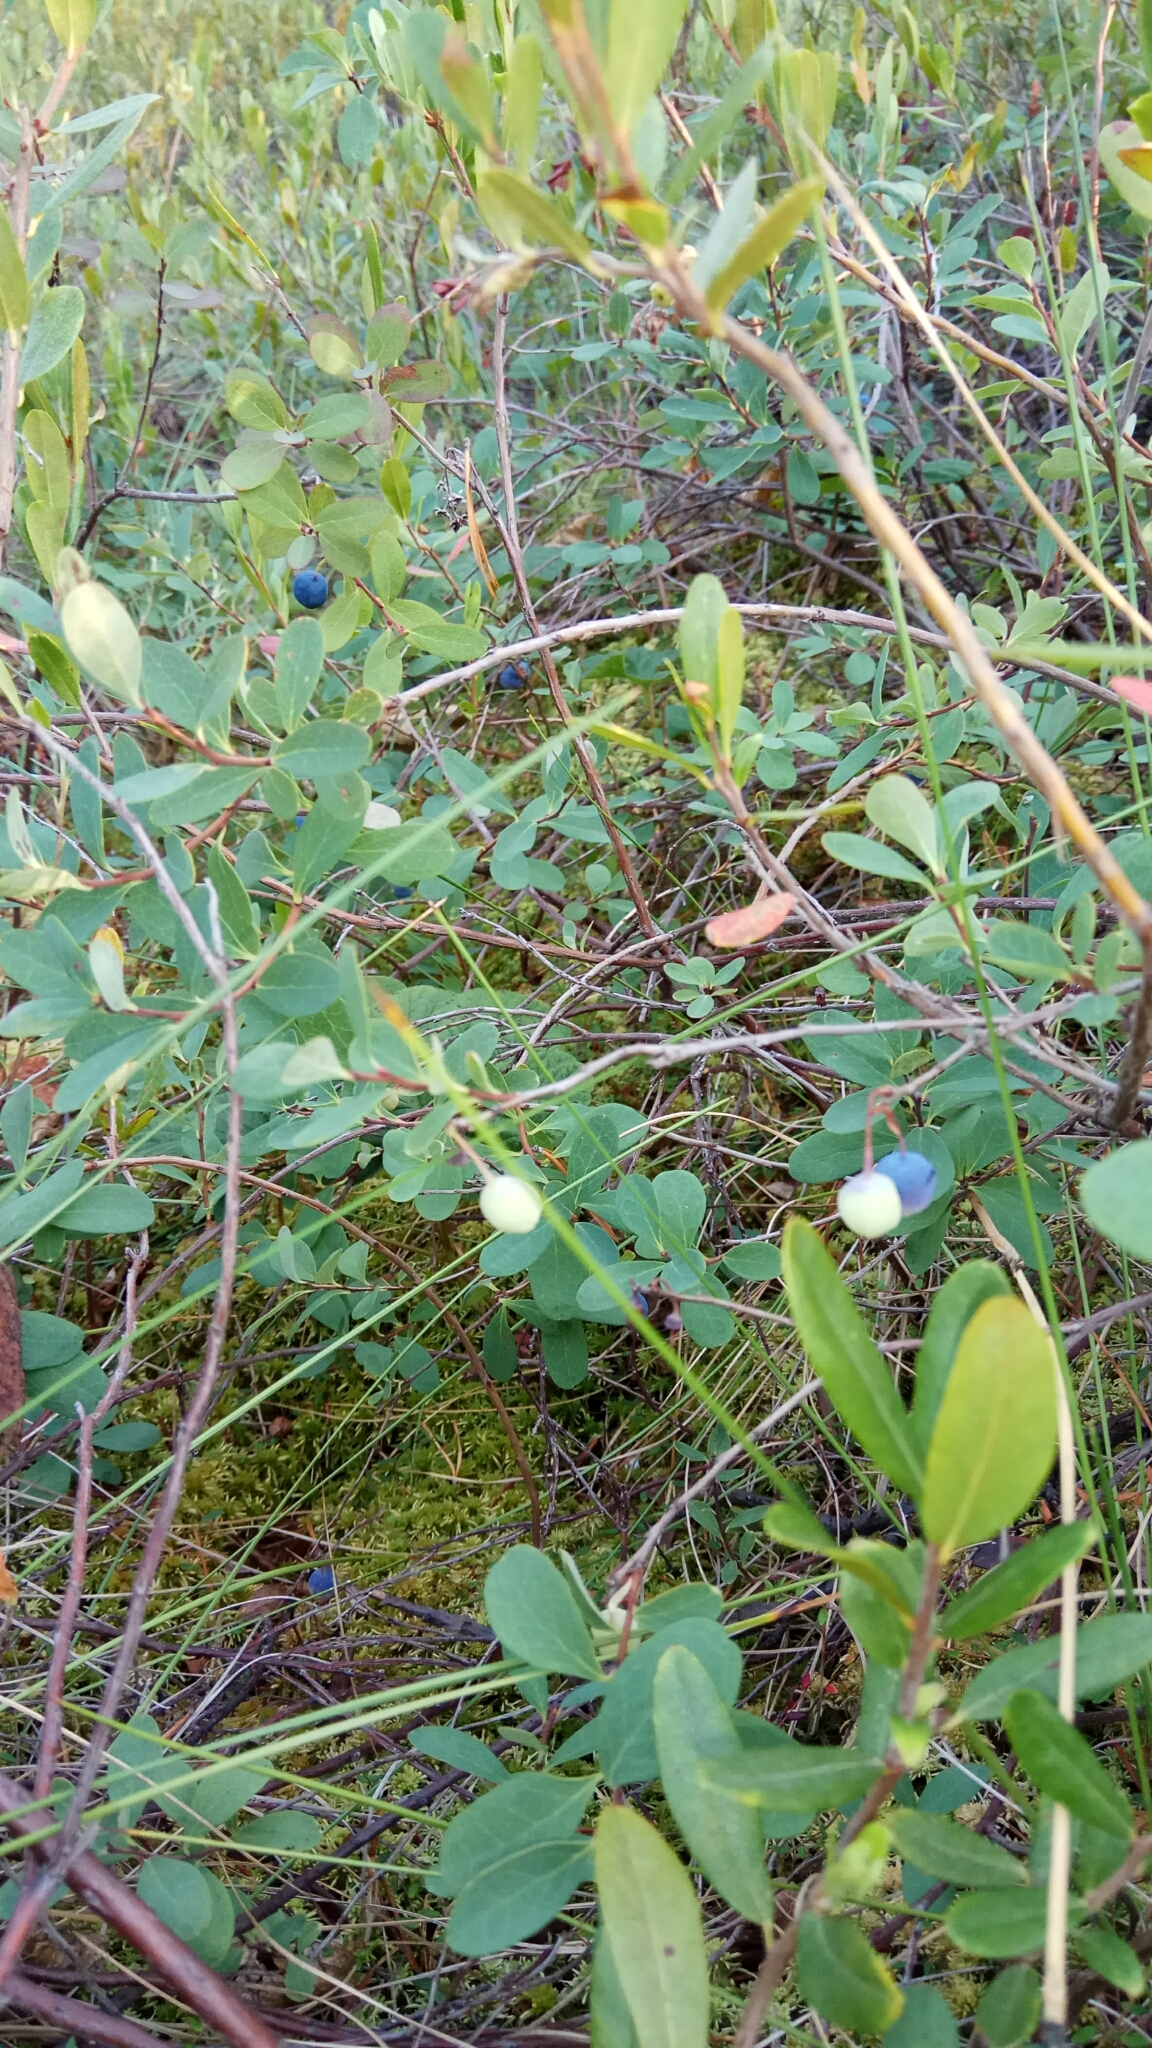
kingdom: Plantae
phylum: Tracheophyta
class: Magnoliopsida
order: Ericales
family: Ericaceae
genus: Vaccinium
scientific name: Vaccinium uliginosum
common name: Bog bilberry
